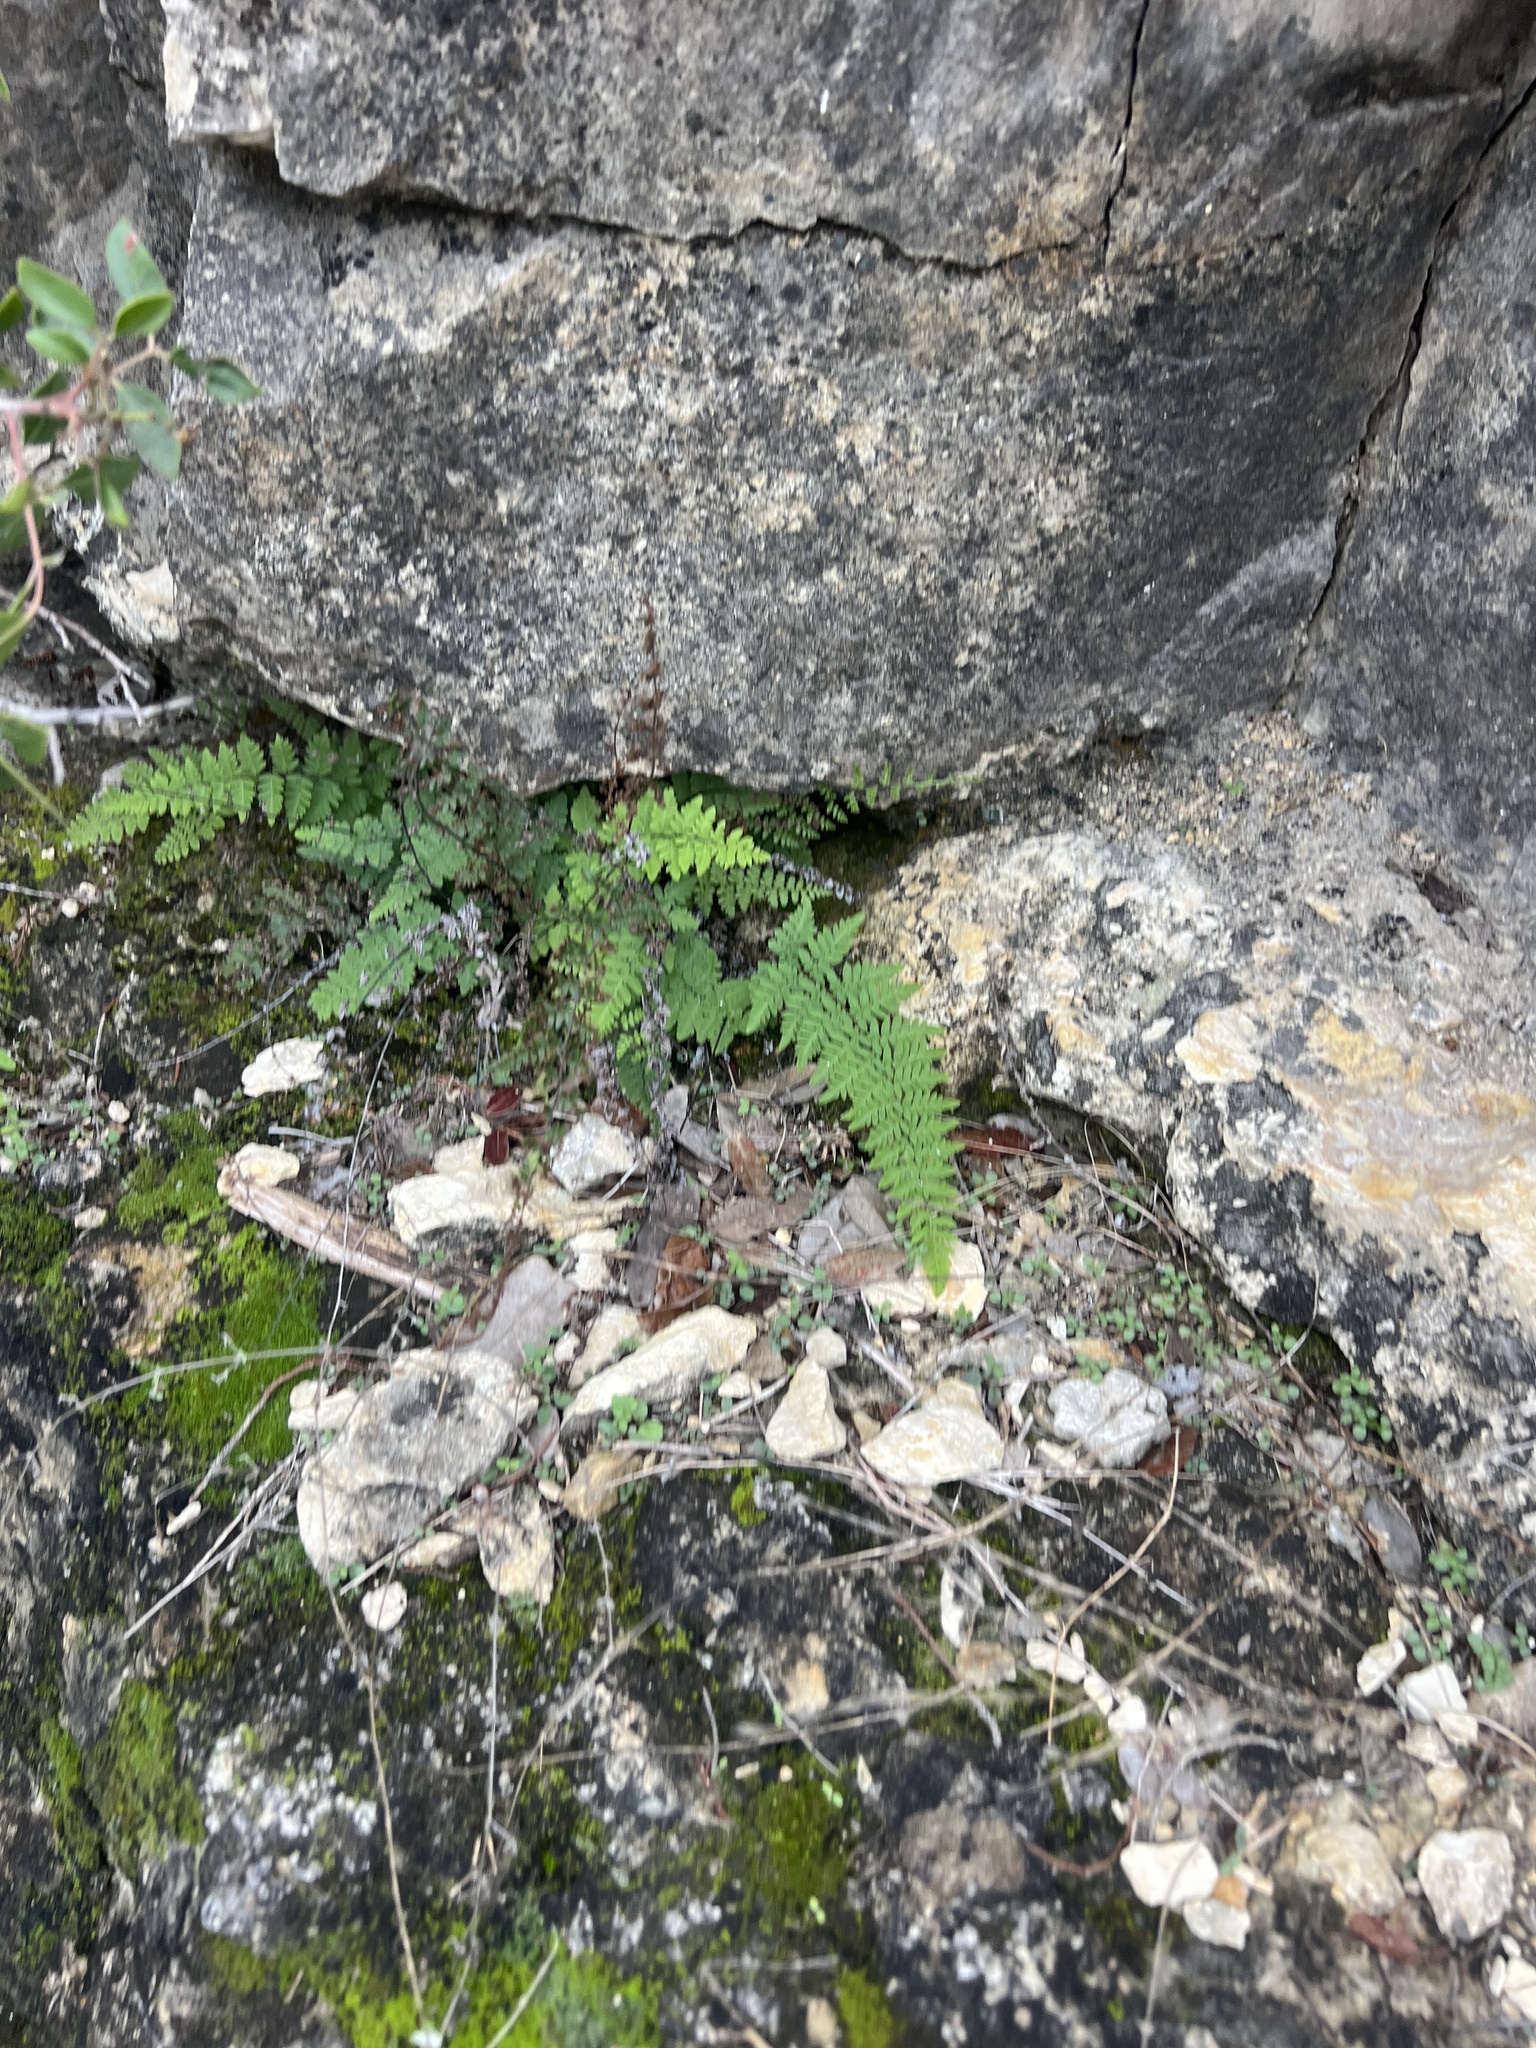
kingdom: Plantae
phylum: Tracheophyta
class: Polypodiopsida
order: Polypodiales
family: Pteridaceae
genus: Myriopteris
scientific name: Myriopteris alabamensis
